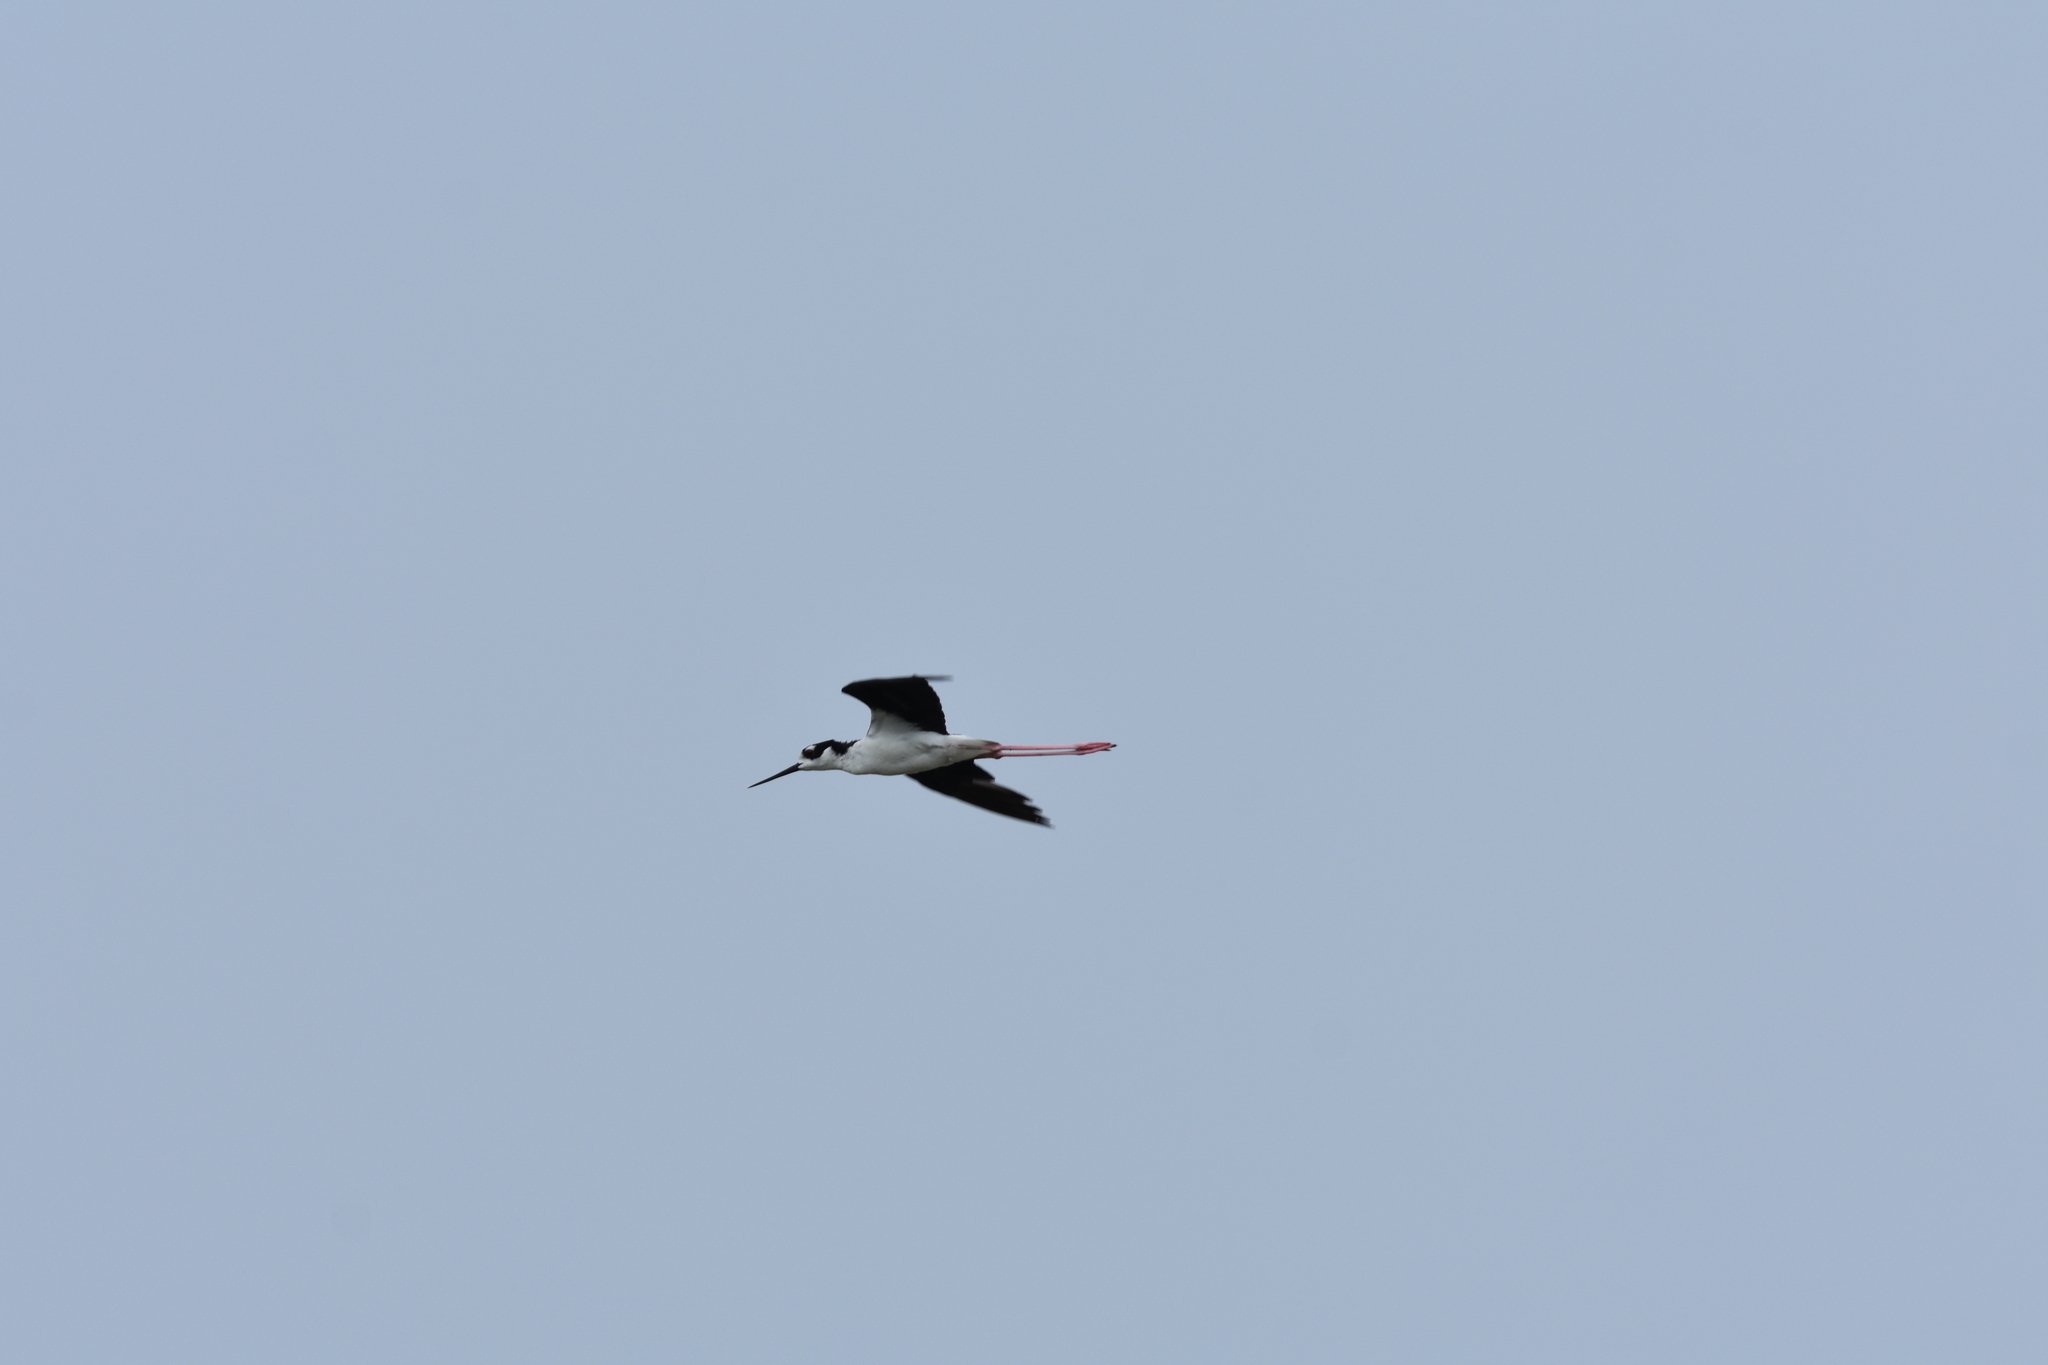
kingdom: Animalia
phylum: Chordata
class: Aves
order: Charadriiformes
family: Recurvirostridae
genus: Himantopus
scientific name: Himantopus mexicanus
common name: Black-necked stilt
